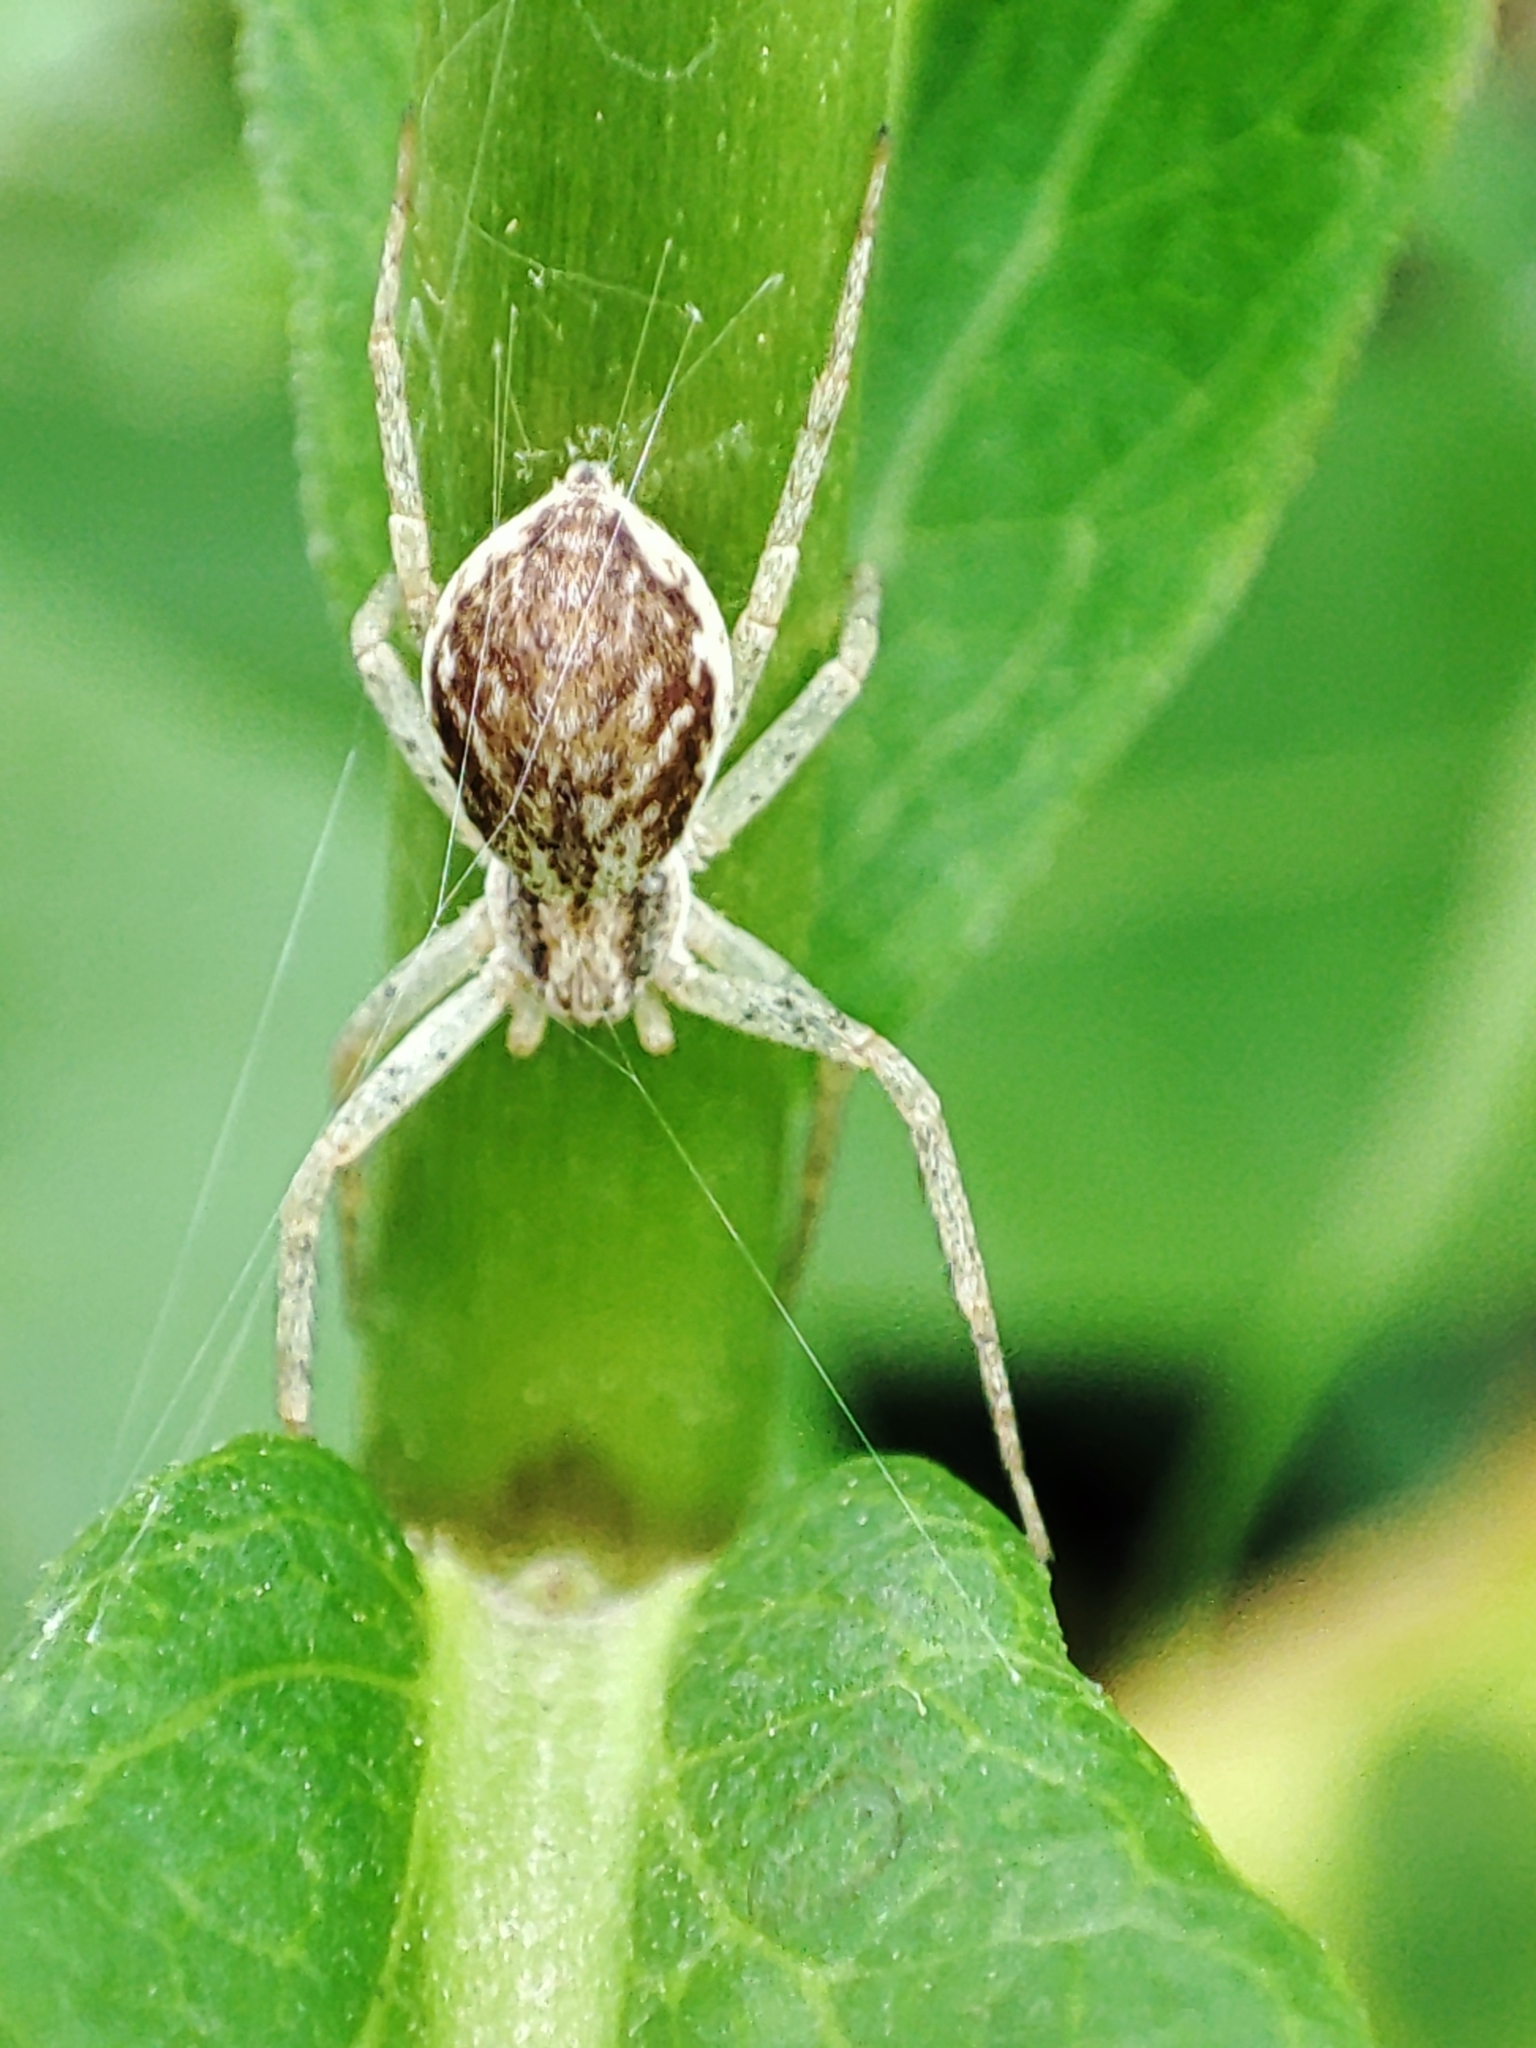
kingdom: Animalia
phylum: Arthropoda
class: Arachnida
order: Araneae
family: Philodromidae
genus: Philodromus
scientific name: Philodromus dispar
